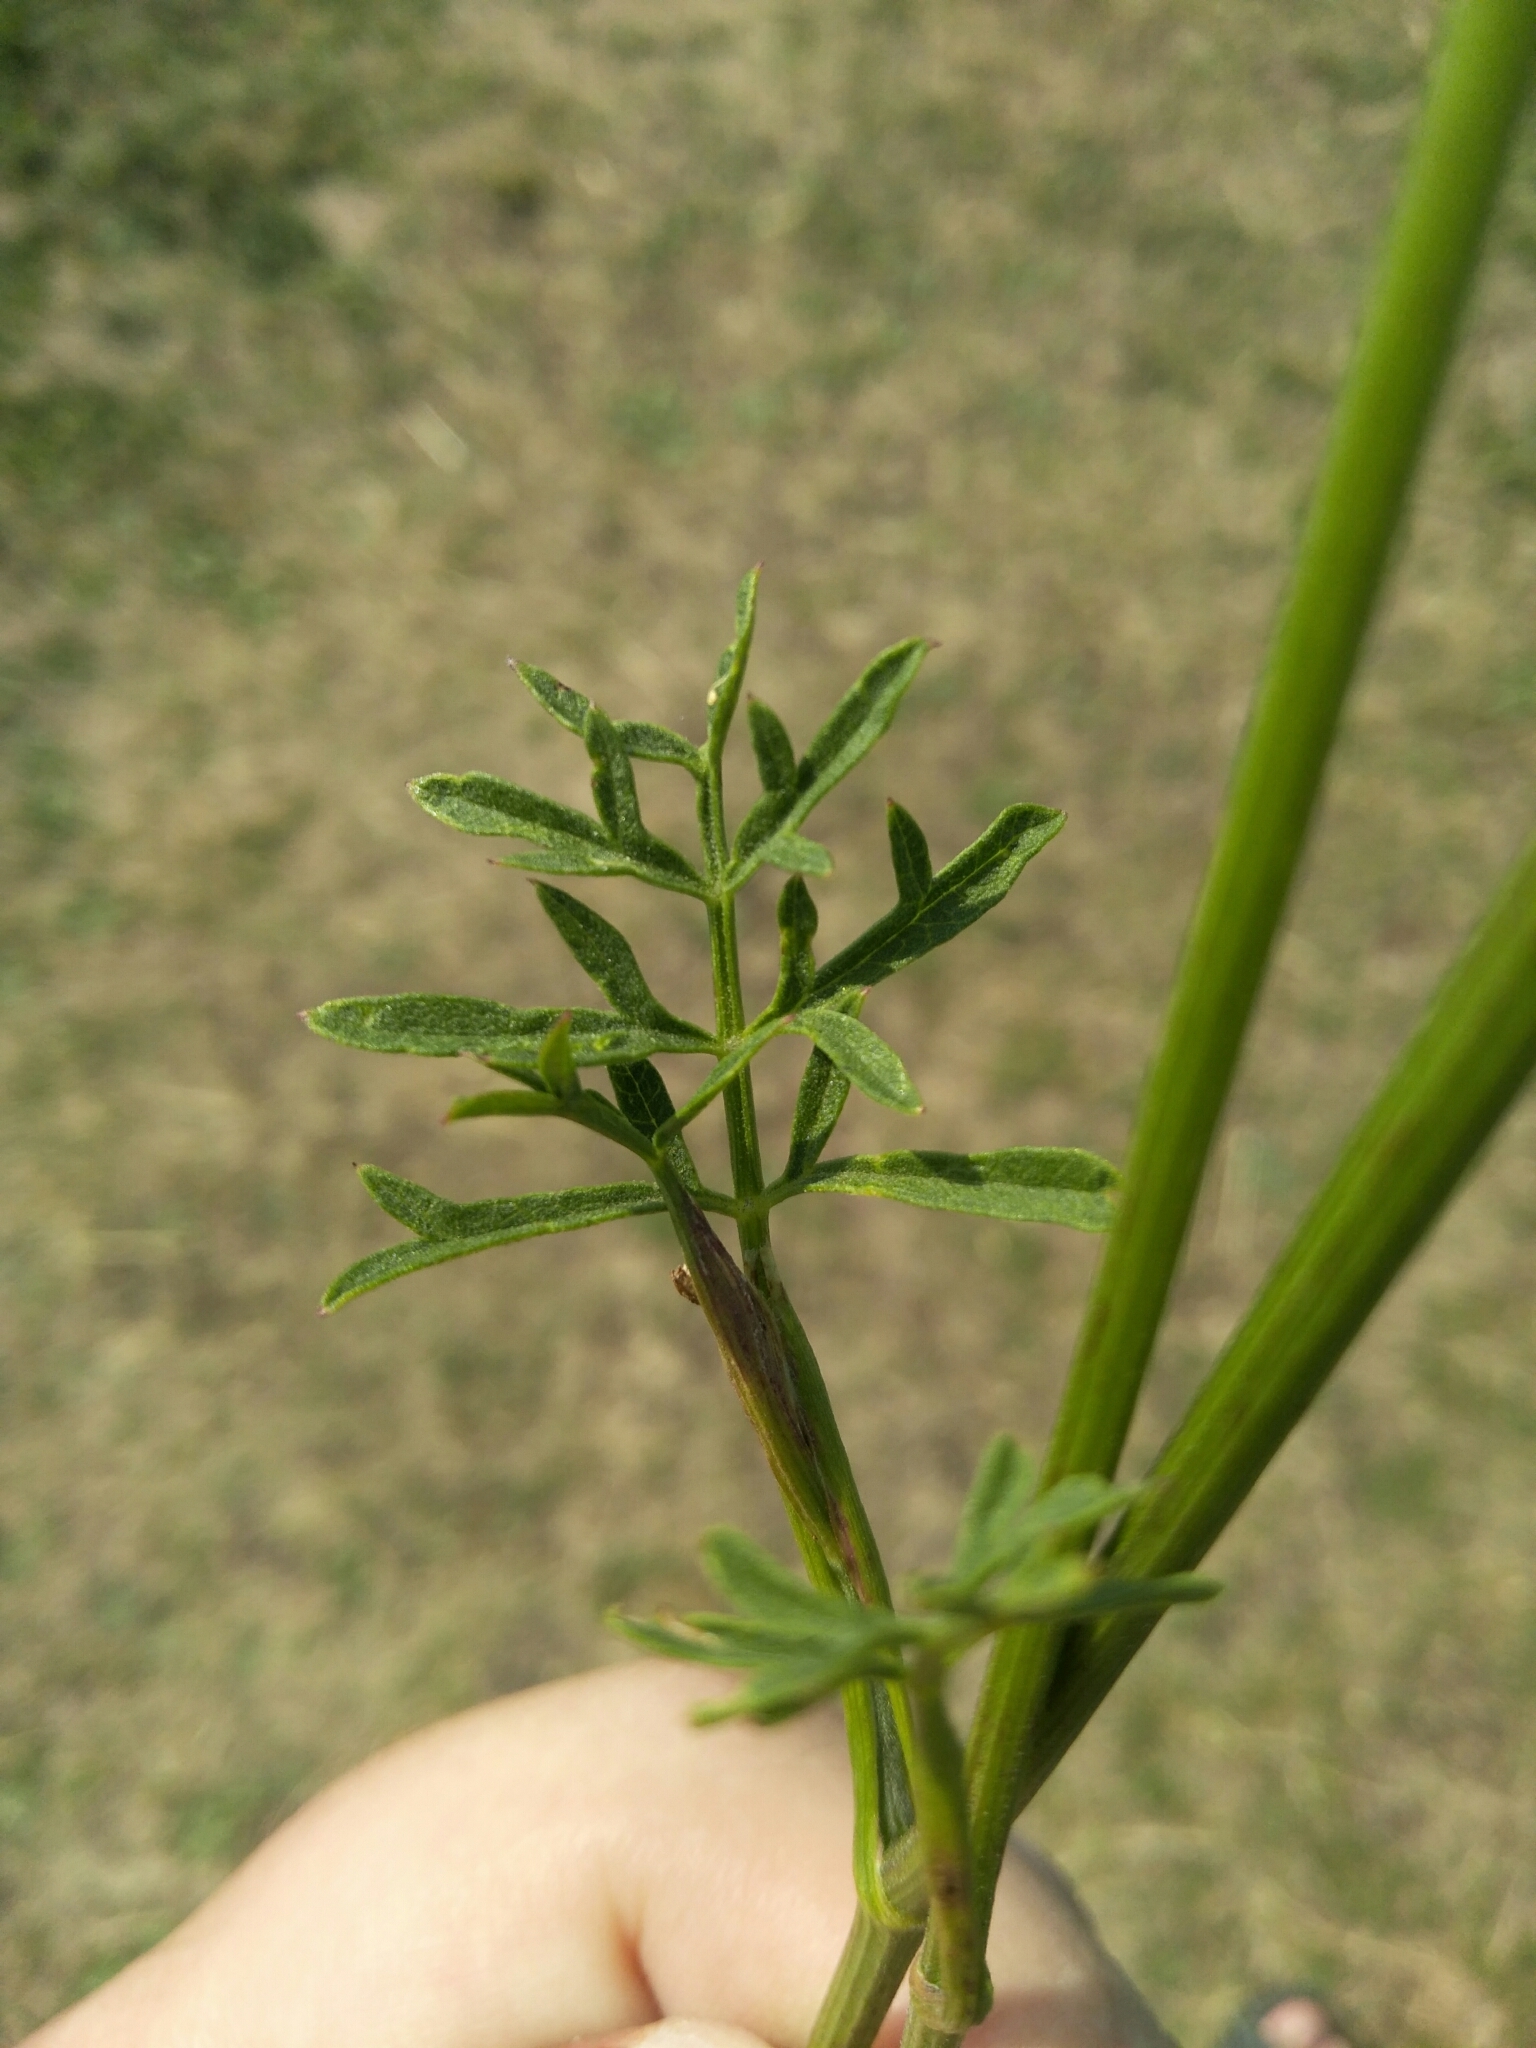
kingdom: Plantae
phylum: Tracheophyta
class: Magnoliopsida
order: Apiales
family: Apiaceae
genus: Pimpinella
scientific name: Pimpinella saxifraga
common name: Burnet-saxifrage
